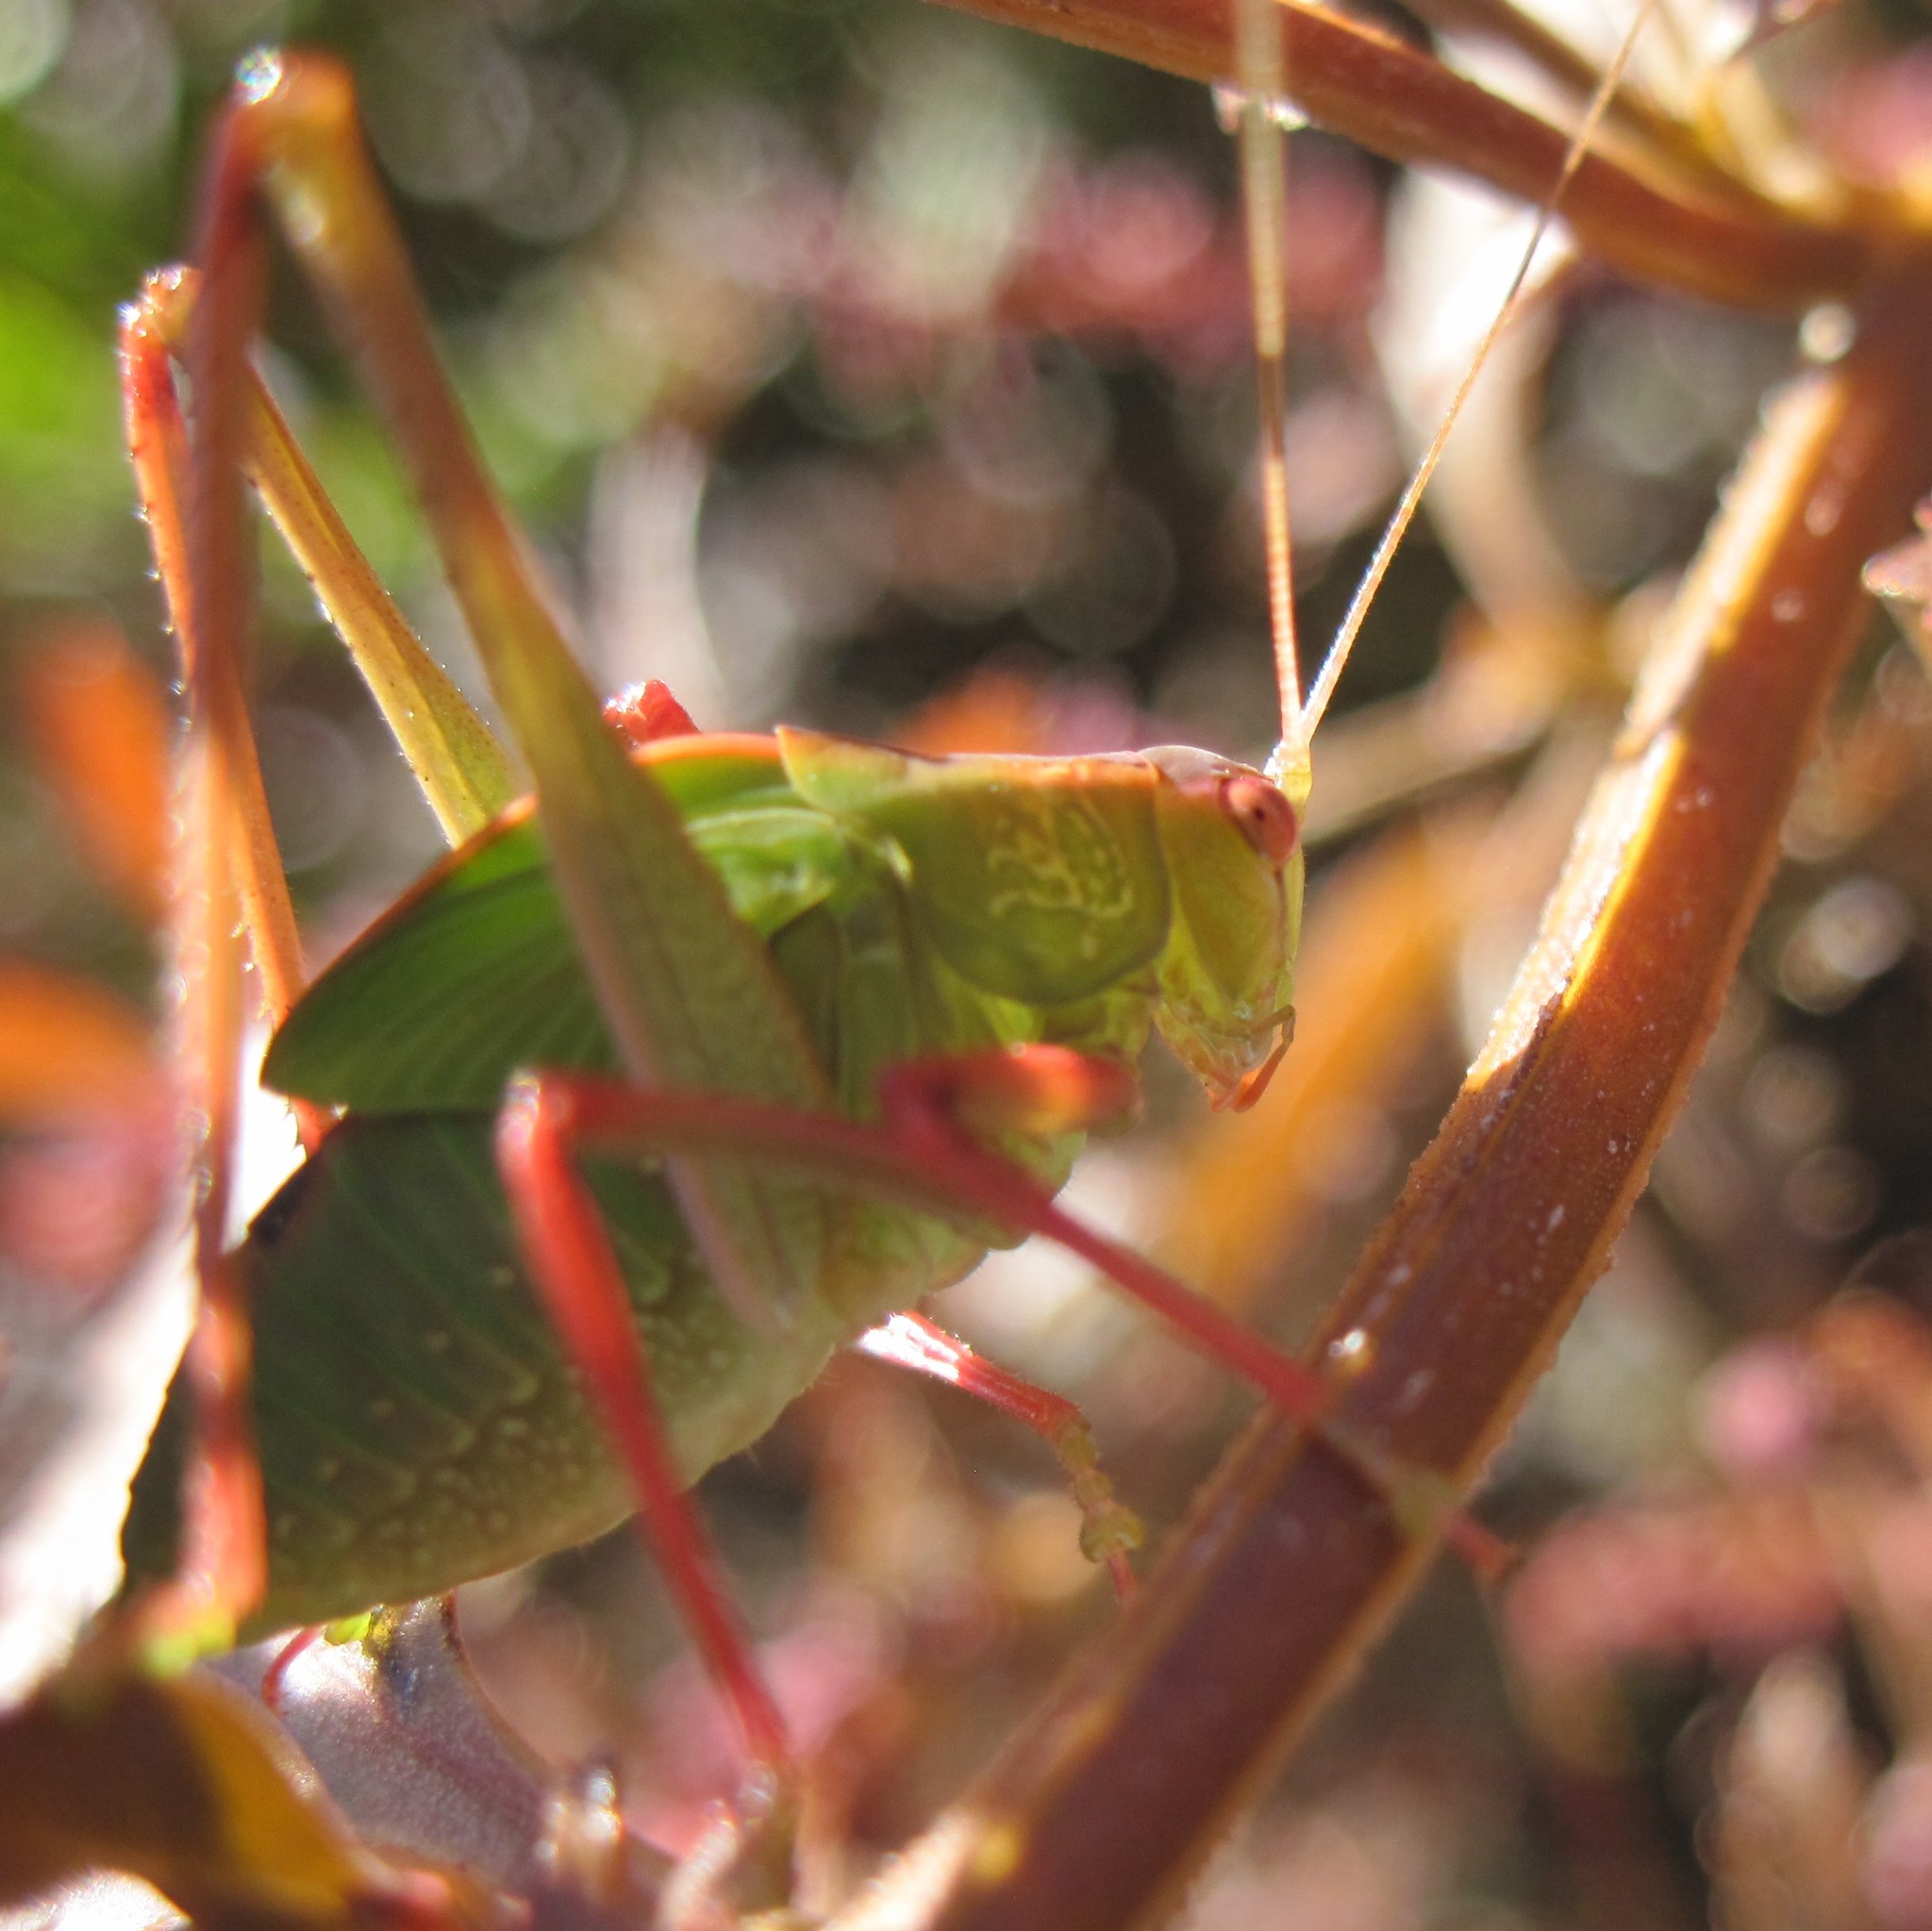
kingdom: Animalia
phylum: Arthropoda
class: Insecta
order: Orthoptera
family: Tettigoniidae
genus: Caedicia
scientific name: Caedicia simplex
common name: Common garden katydid
